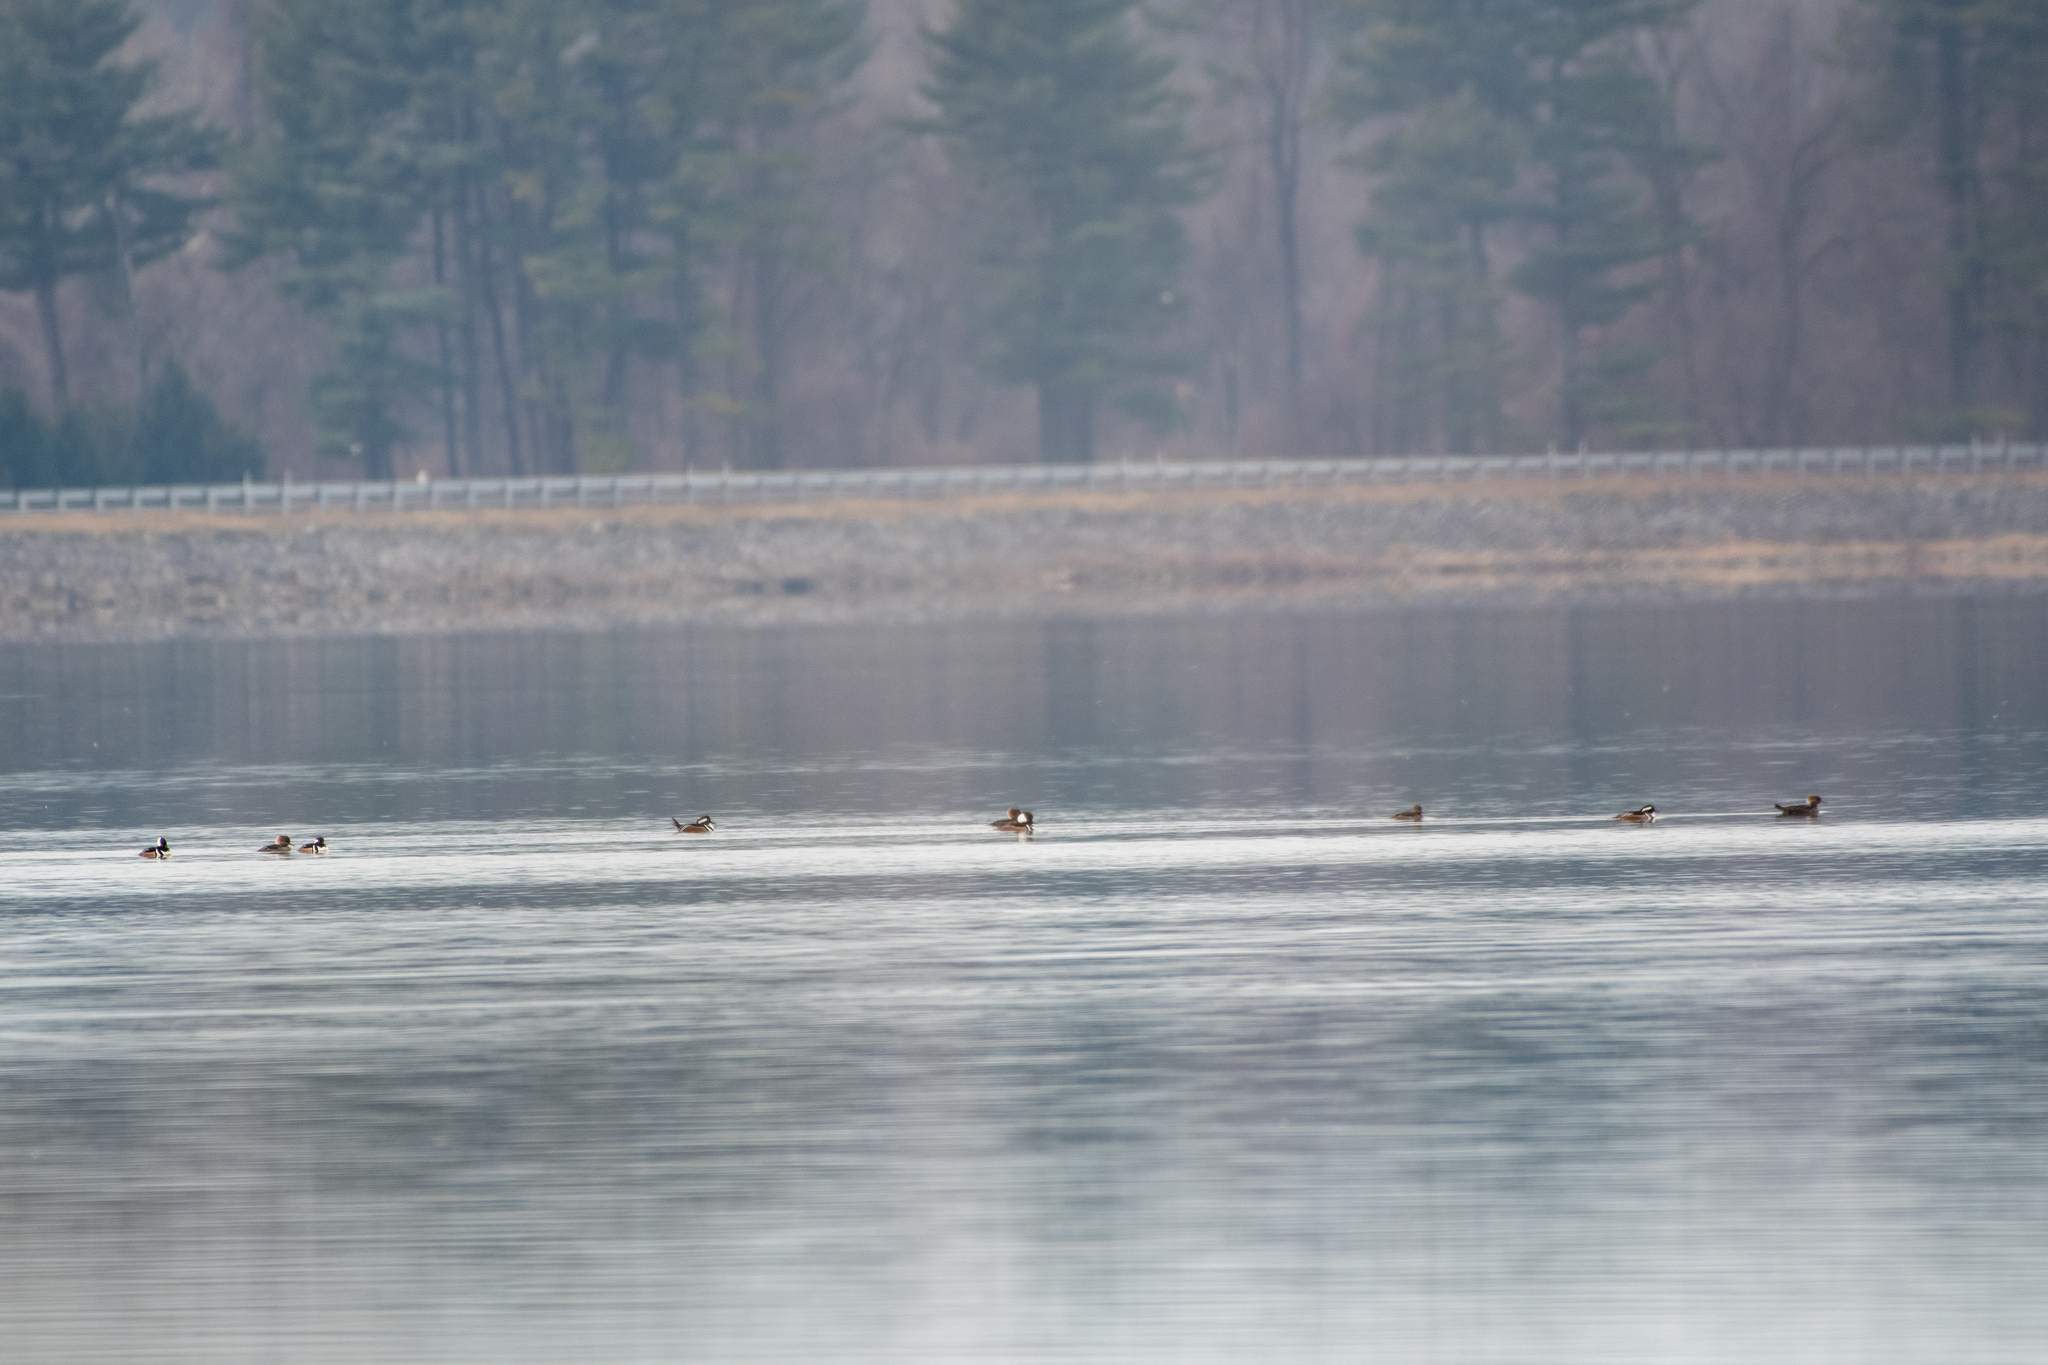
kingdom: Animalia
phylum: Chordata
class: Aves
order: Anseriformes
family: Anatidae
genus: Lophodytes
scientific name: Lophodytes cucullatus
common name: Hooded merganser
